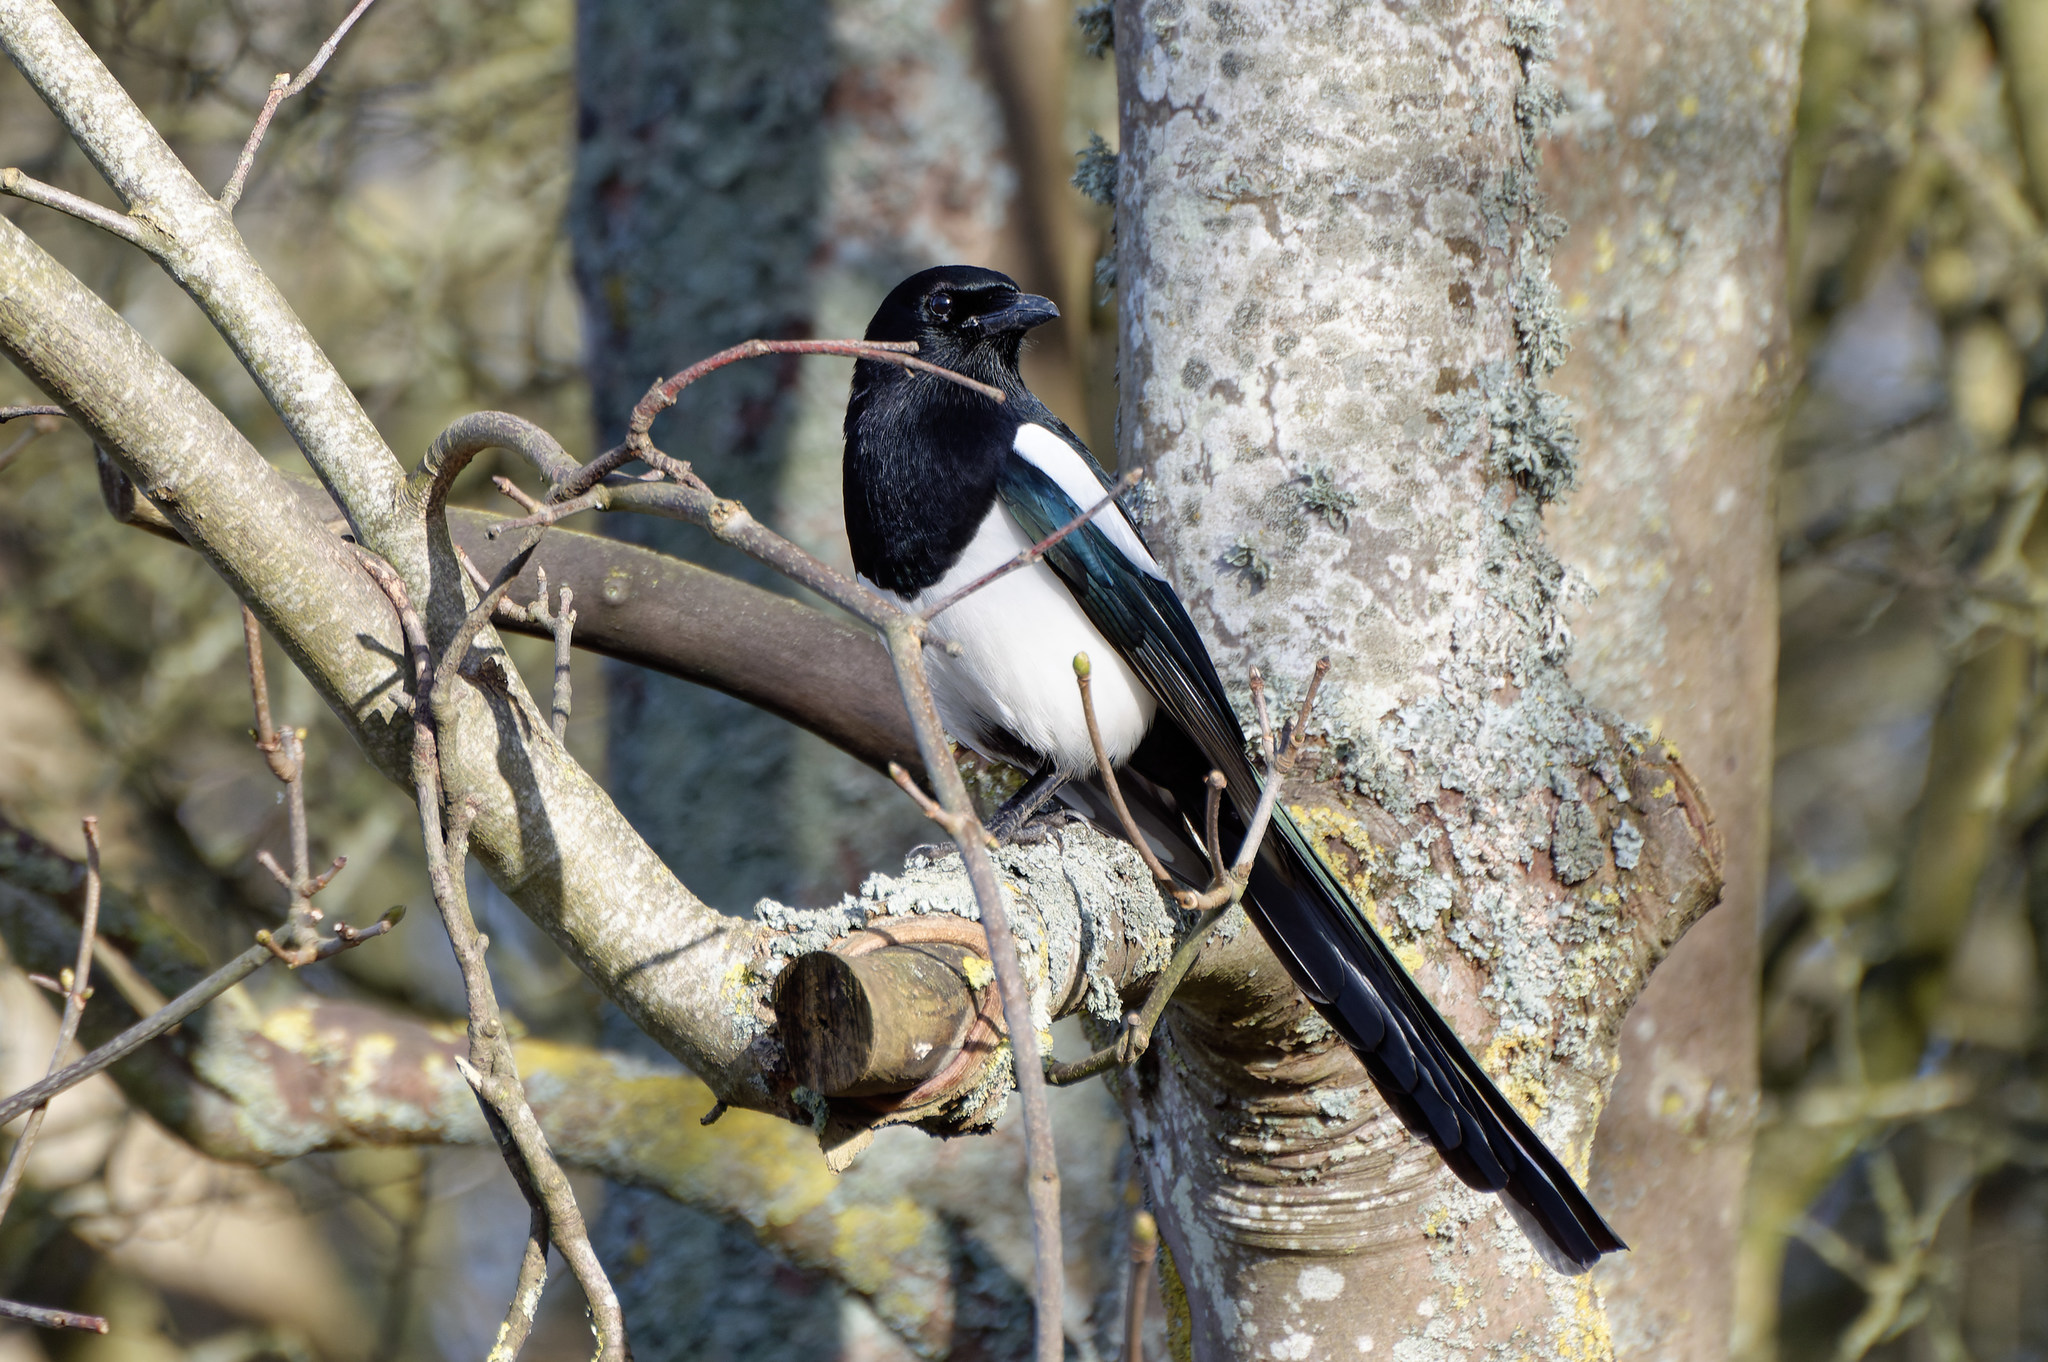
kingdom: Animalia
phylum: Chordata
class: Aves
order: Passeriformes
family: Corvidae
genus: Pica
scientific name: Pica pica
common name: Eurasian magpie
